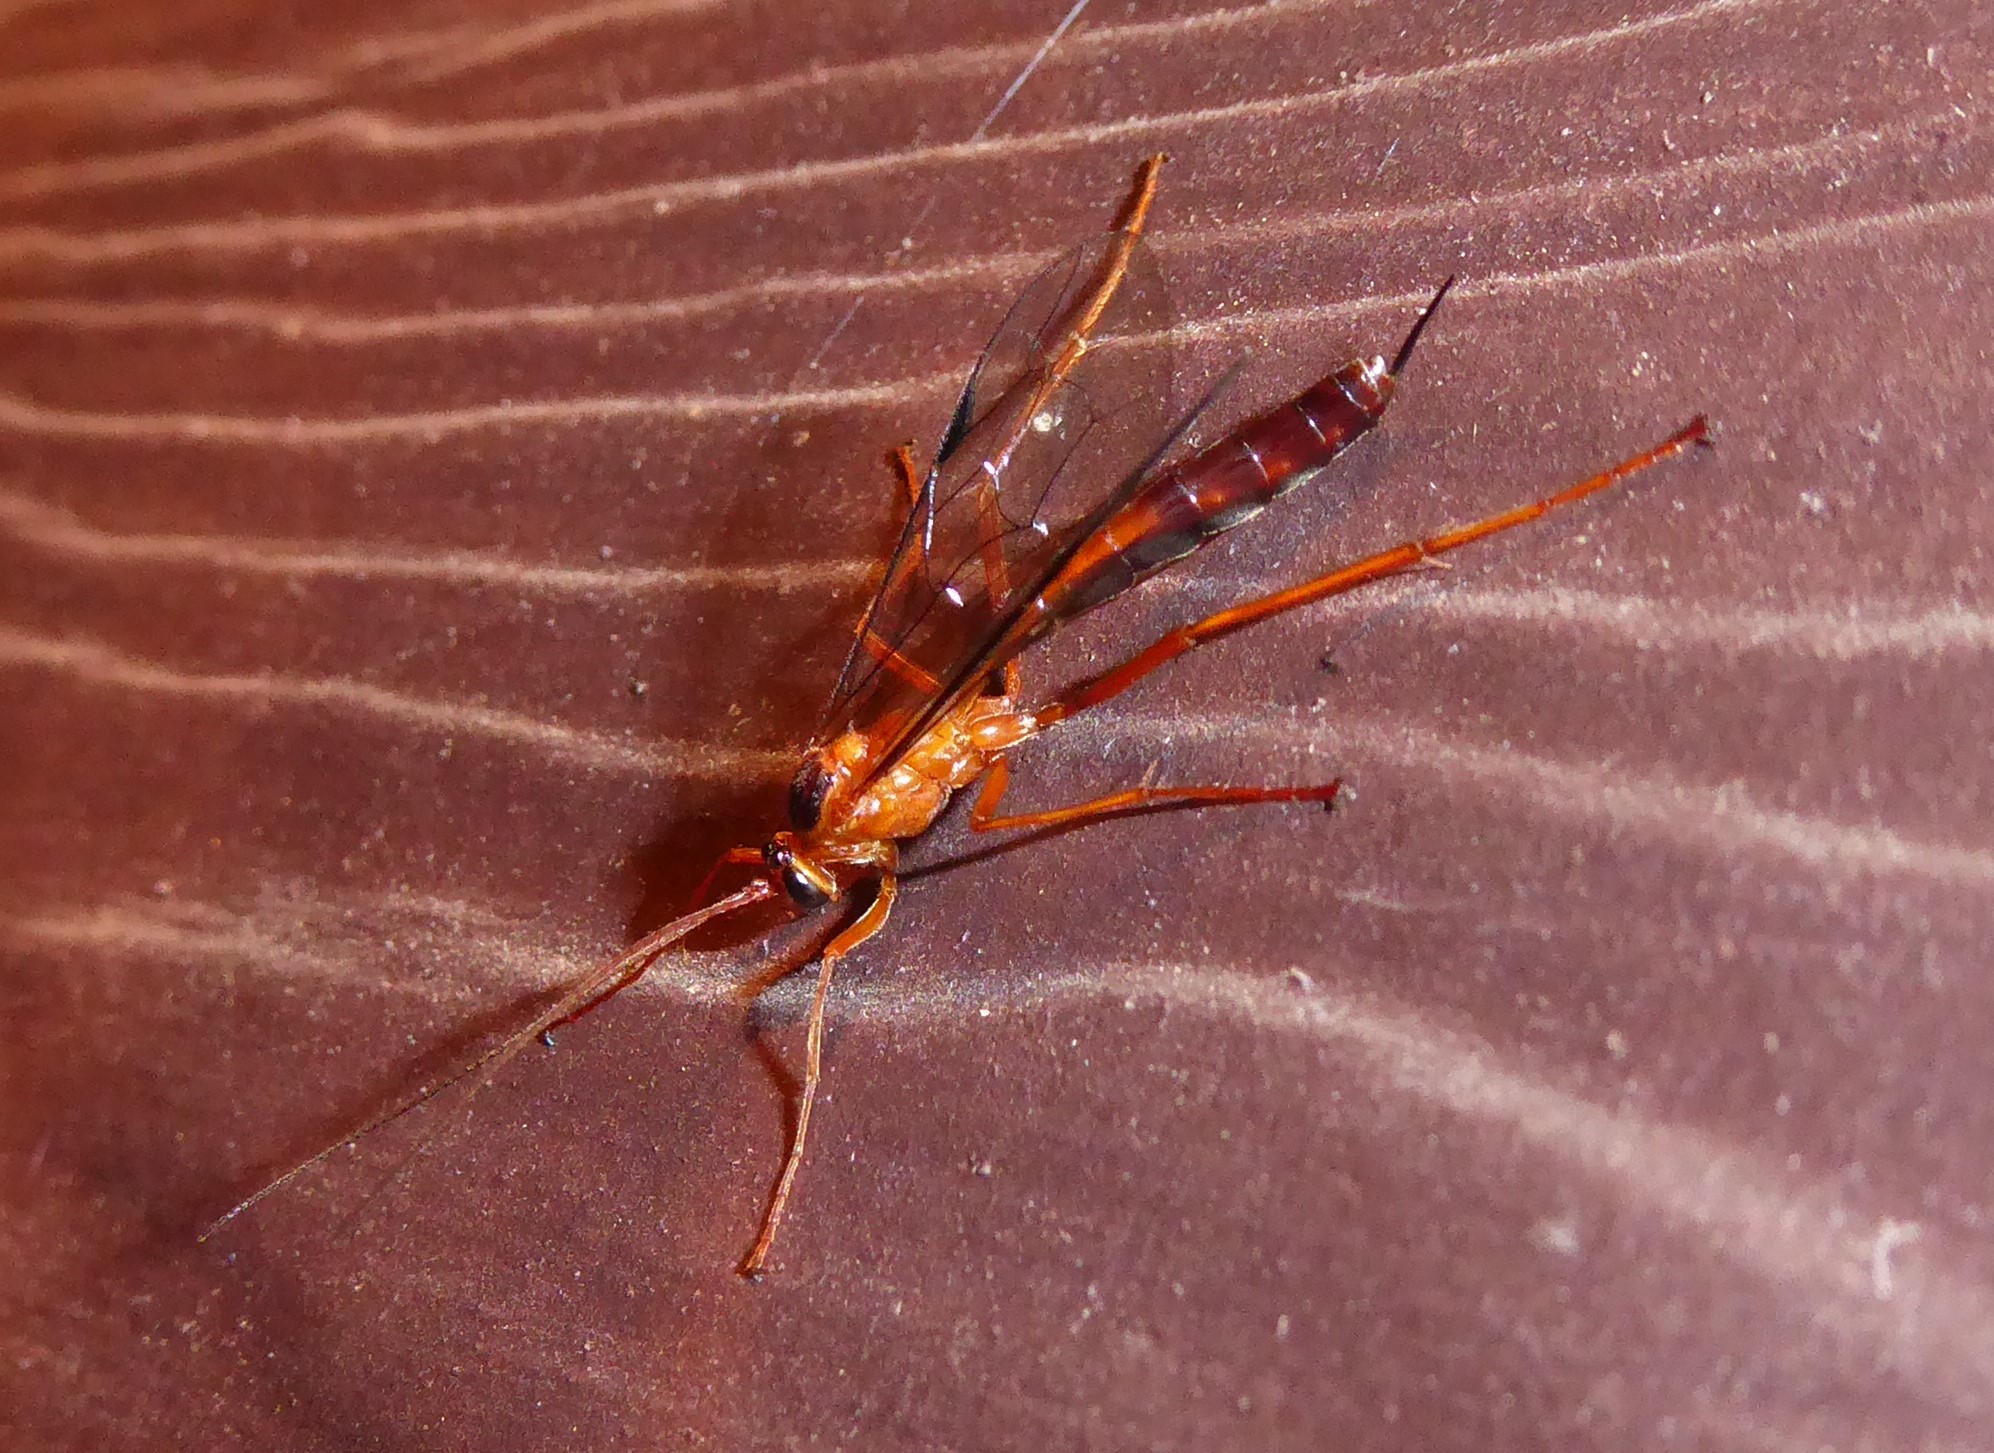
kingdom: Animalia
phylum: Arthropoda
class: Insecta
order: Hymenoptera
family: Ichneumonidae
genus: Netelia
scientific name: Netelia ephippiata
